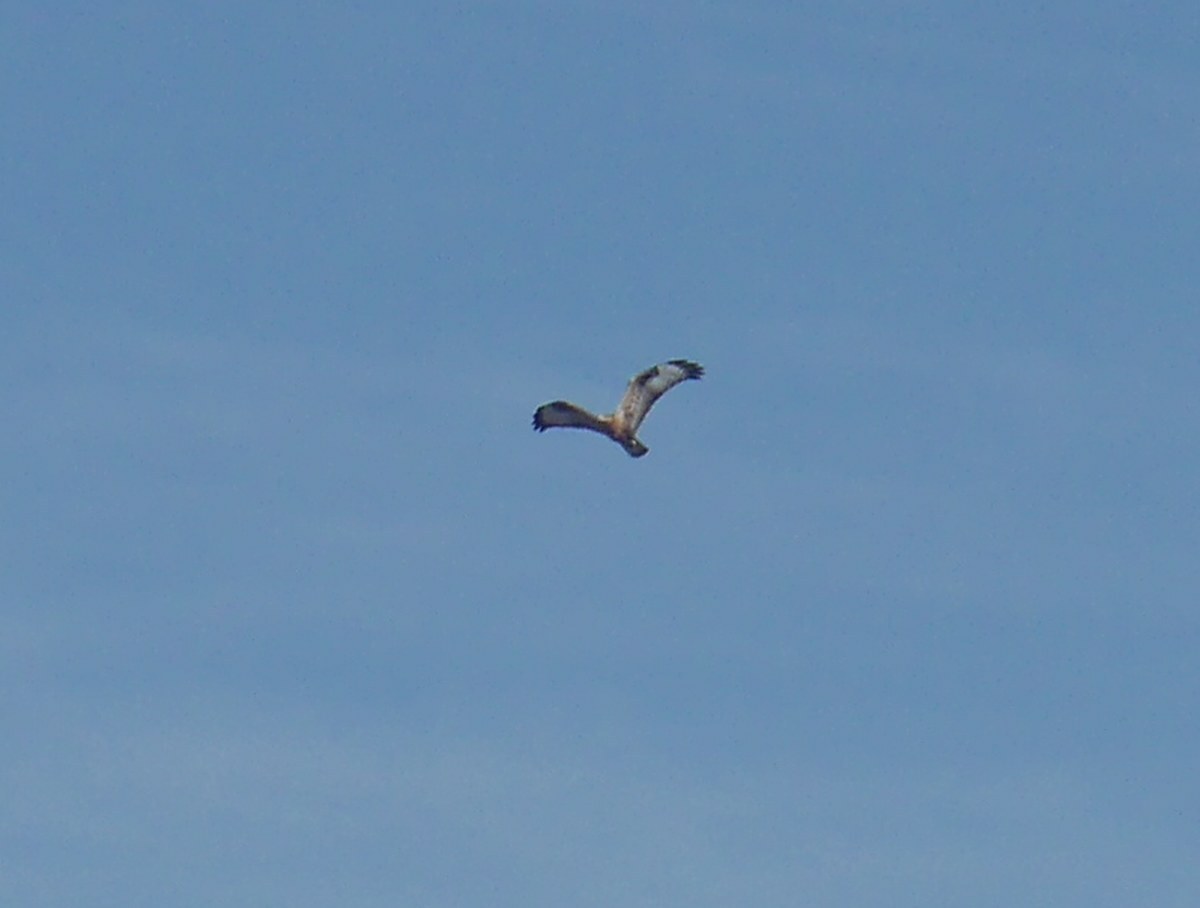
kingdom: Animalia
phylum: Chordata
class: Aves
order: Accipitriformes
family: Accipitridae
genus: Buteo
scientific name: Buteo rufinus
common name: Long-legged buzzard
